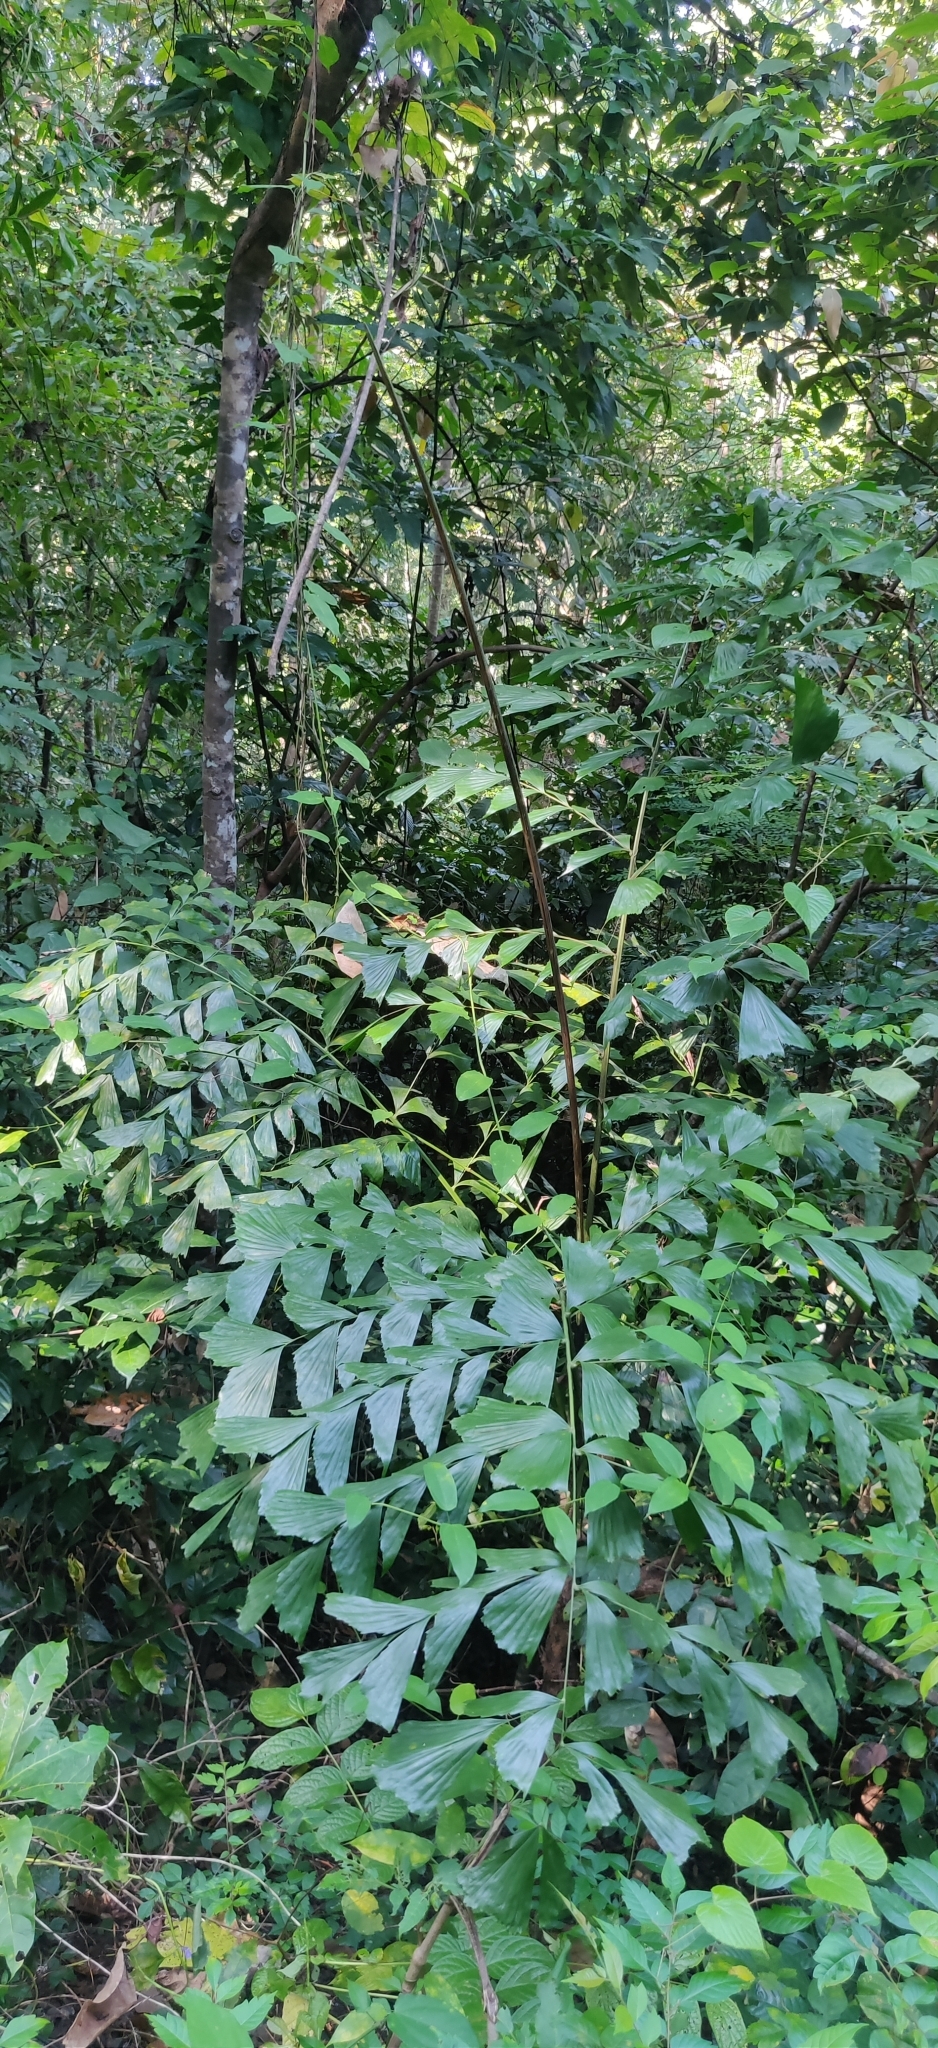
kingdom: Plantae
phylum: Tracheophyta
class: Liliopsida
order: Arecales
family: Arecaceae
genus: Caryota
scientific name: Caryota mitis
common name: Burmese fishtail palm
